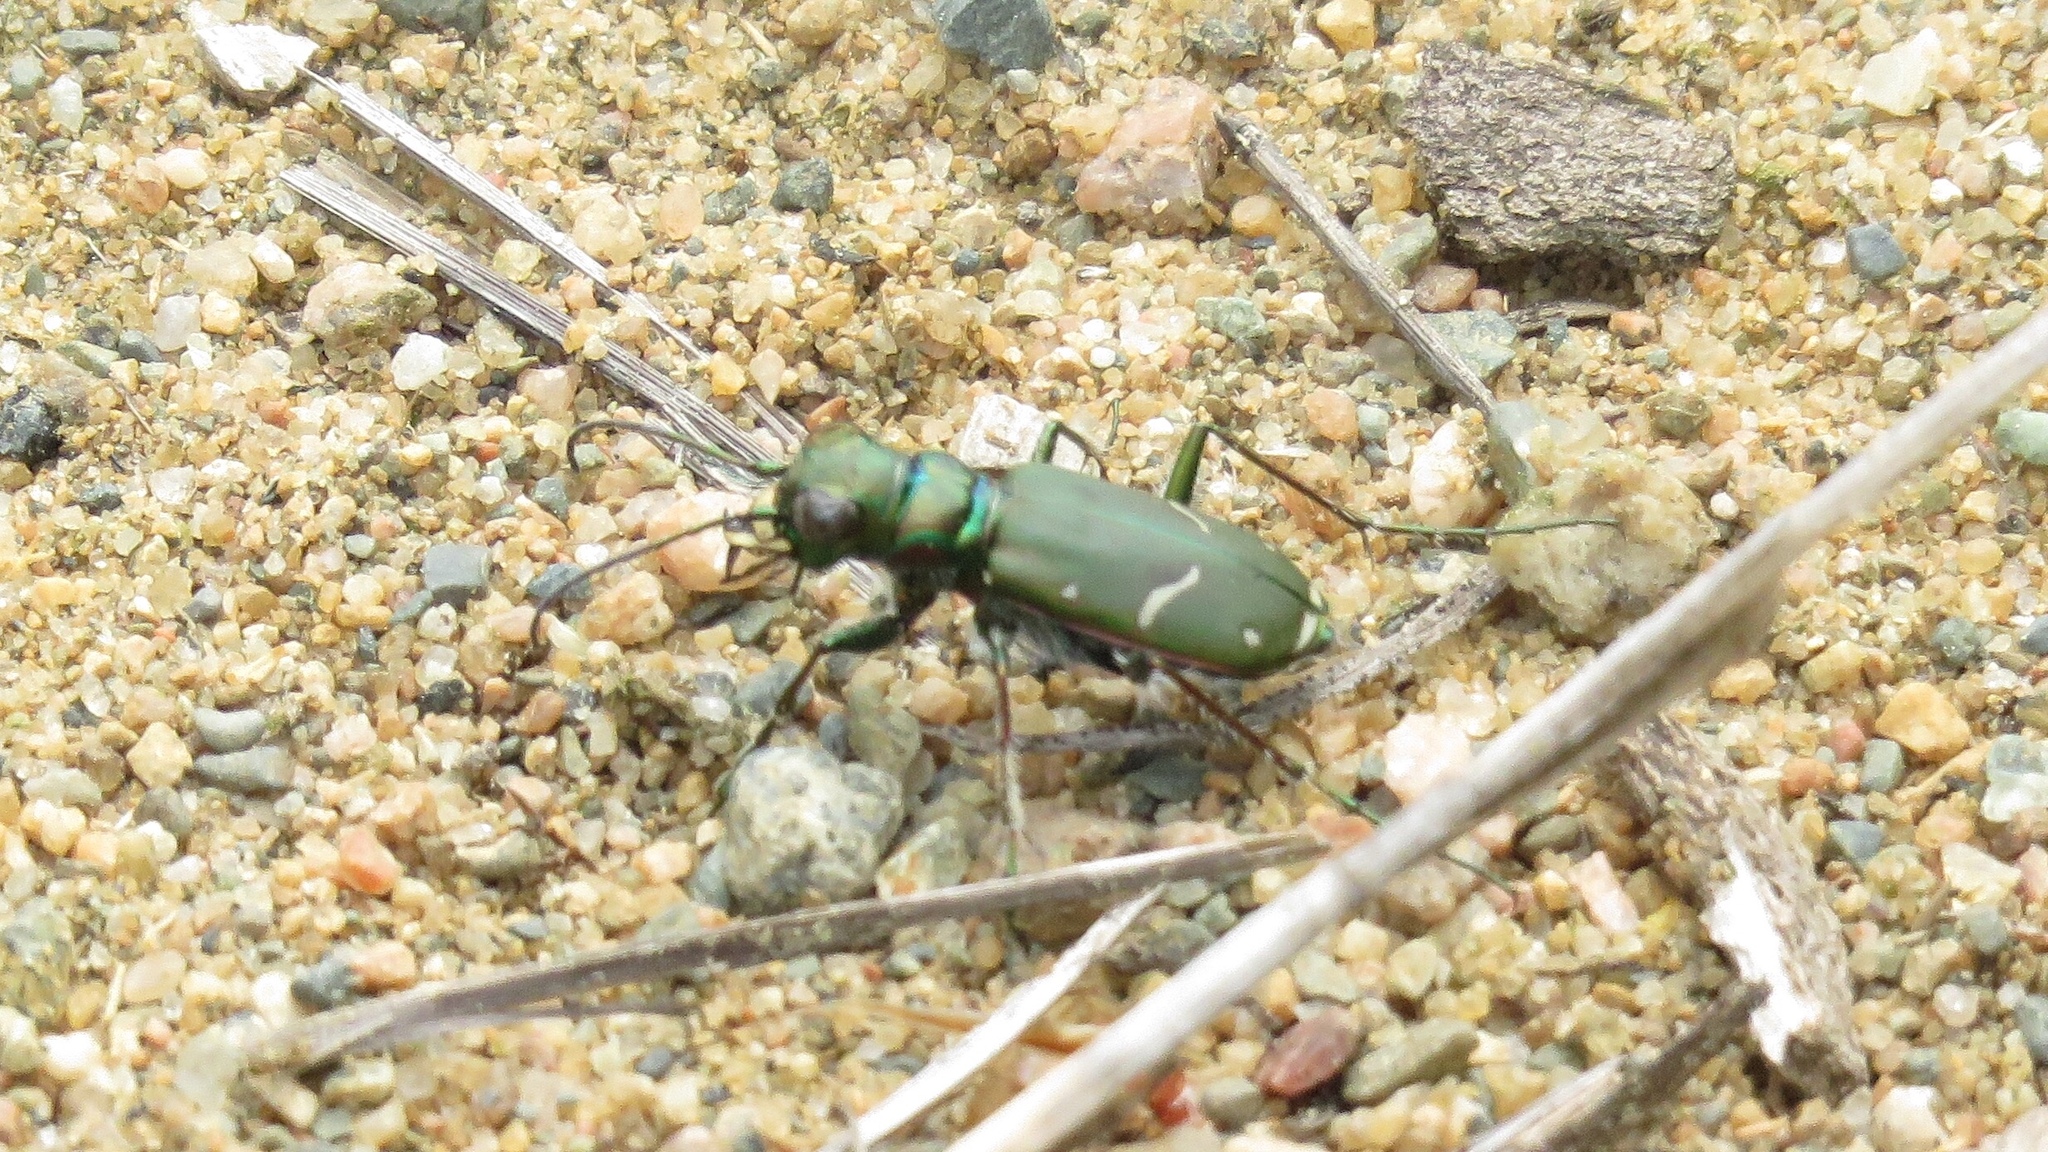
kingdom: Animalia
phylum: Arthropoda
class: Insecta
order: Coleoptera
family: Carabidae
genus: Cicindela
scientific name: Cicindela purpurea
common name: Cow path tiger beetle
